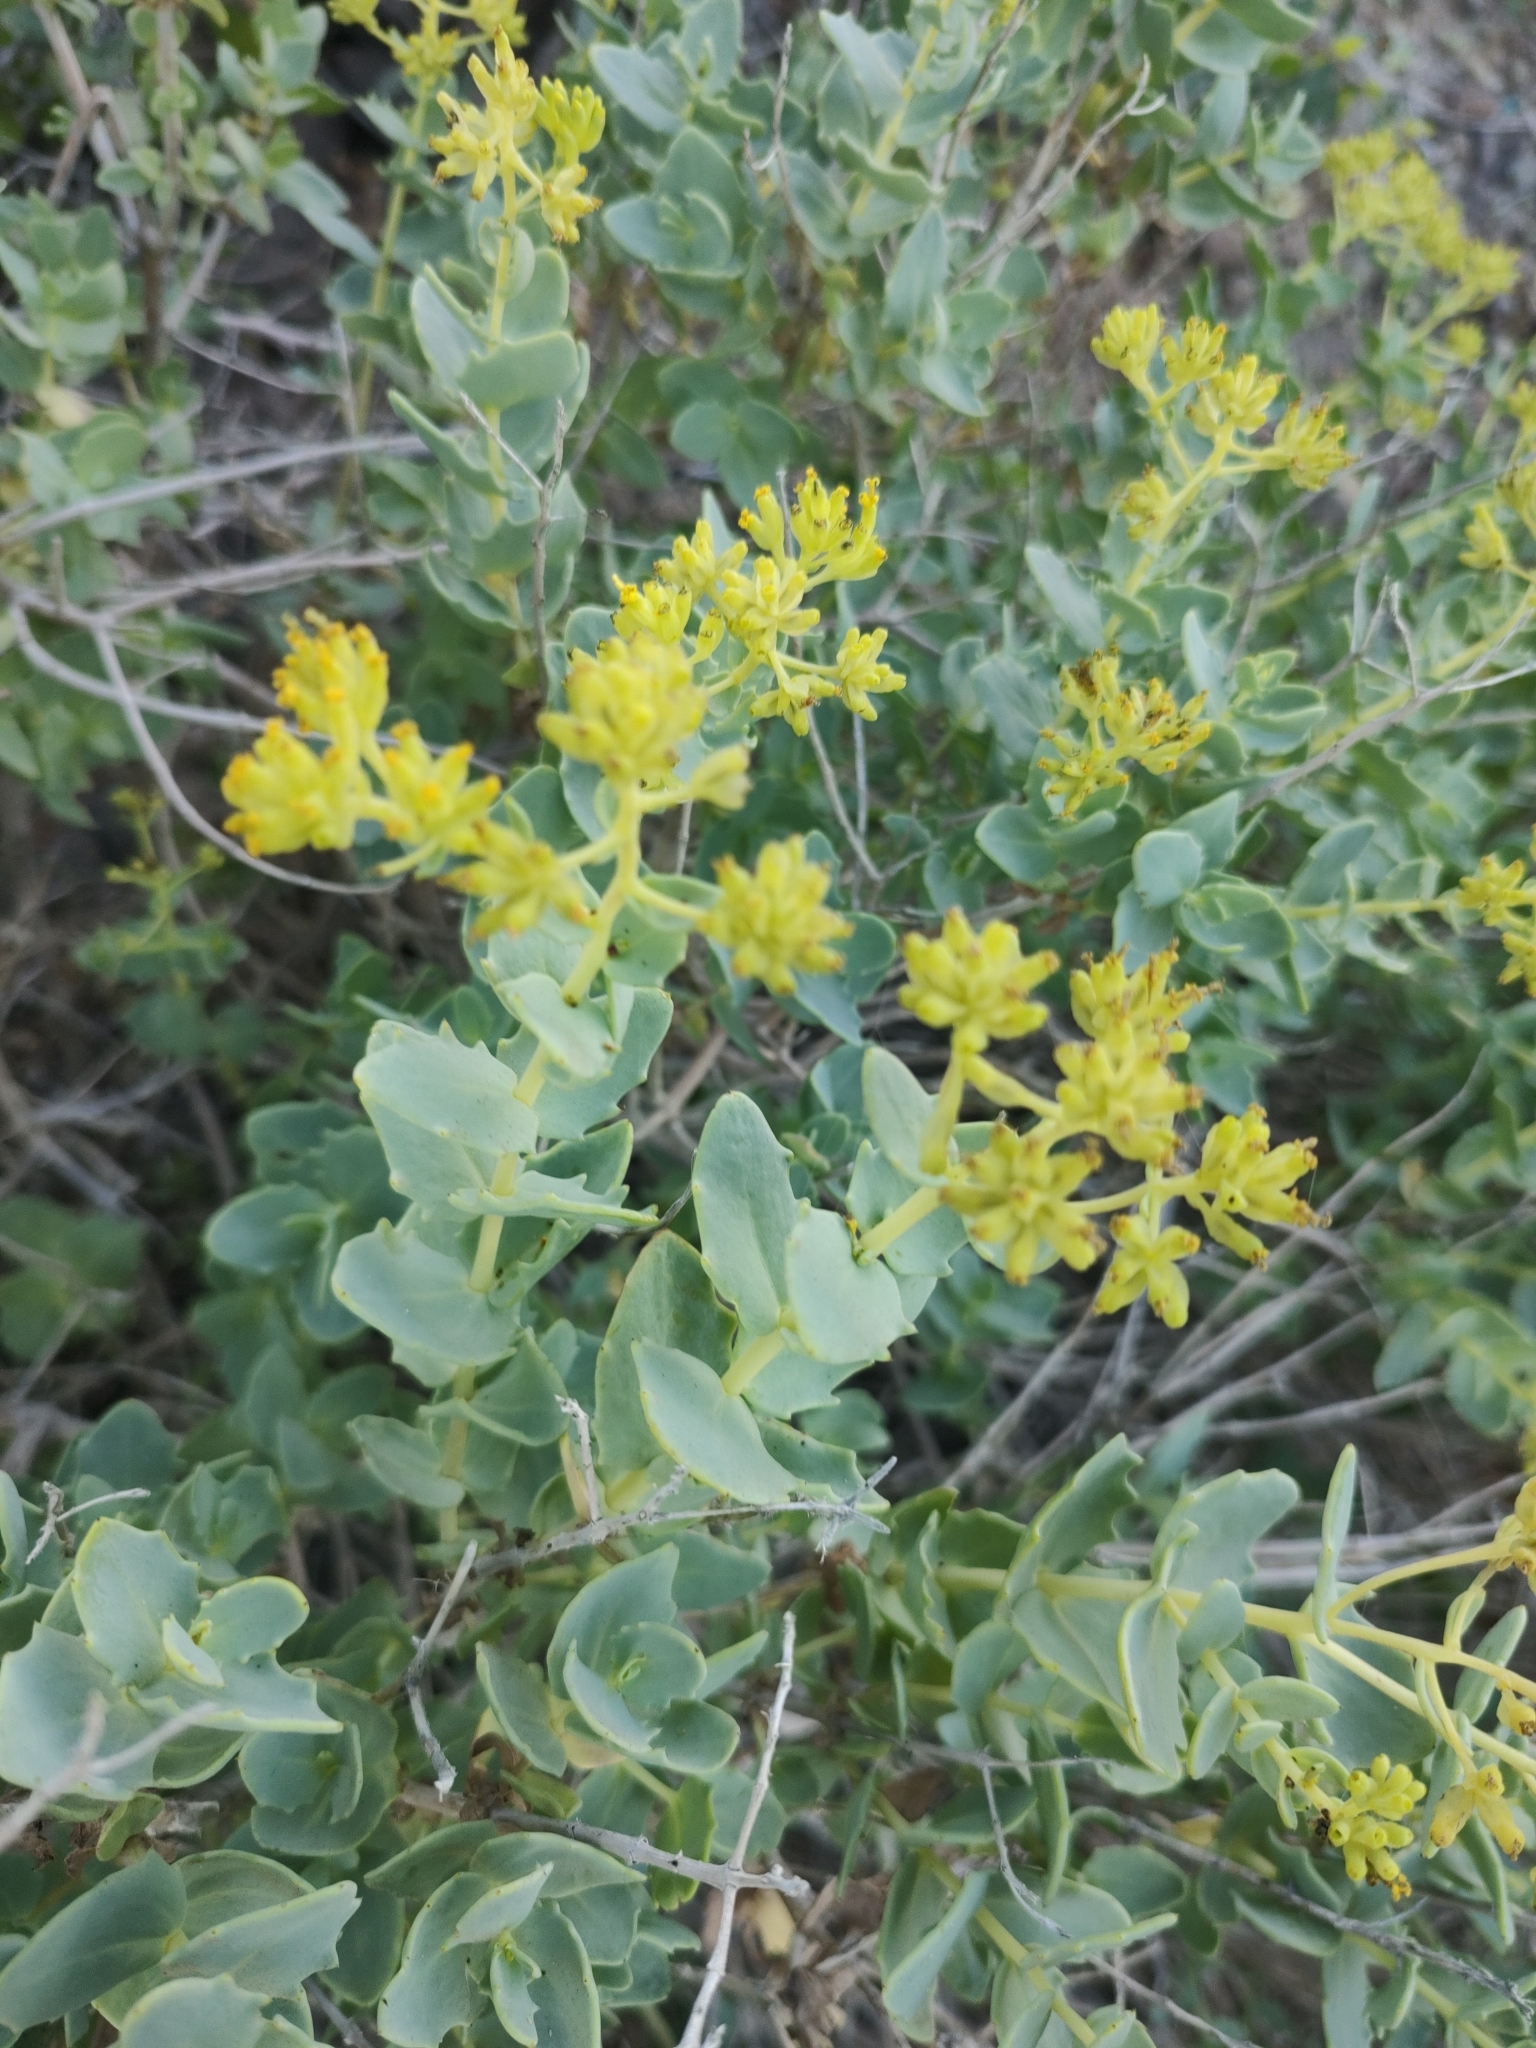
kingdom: Plantae
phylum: Tracheophyta
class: Magnoliopsida
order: Asterales
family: Asteraceae
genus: Coulterella
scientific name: Coulterella capitata
